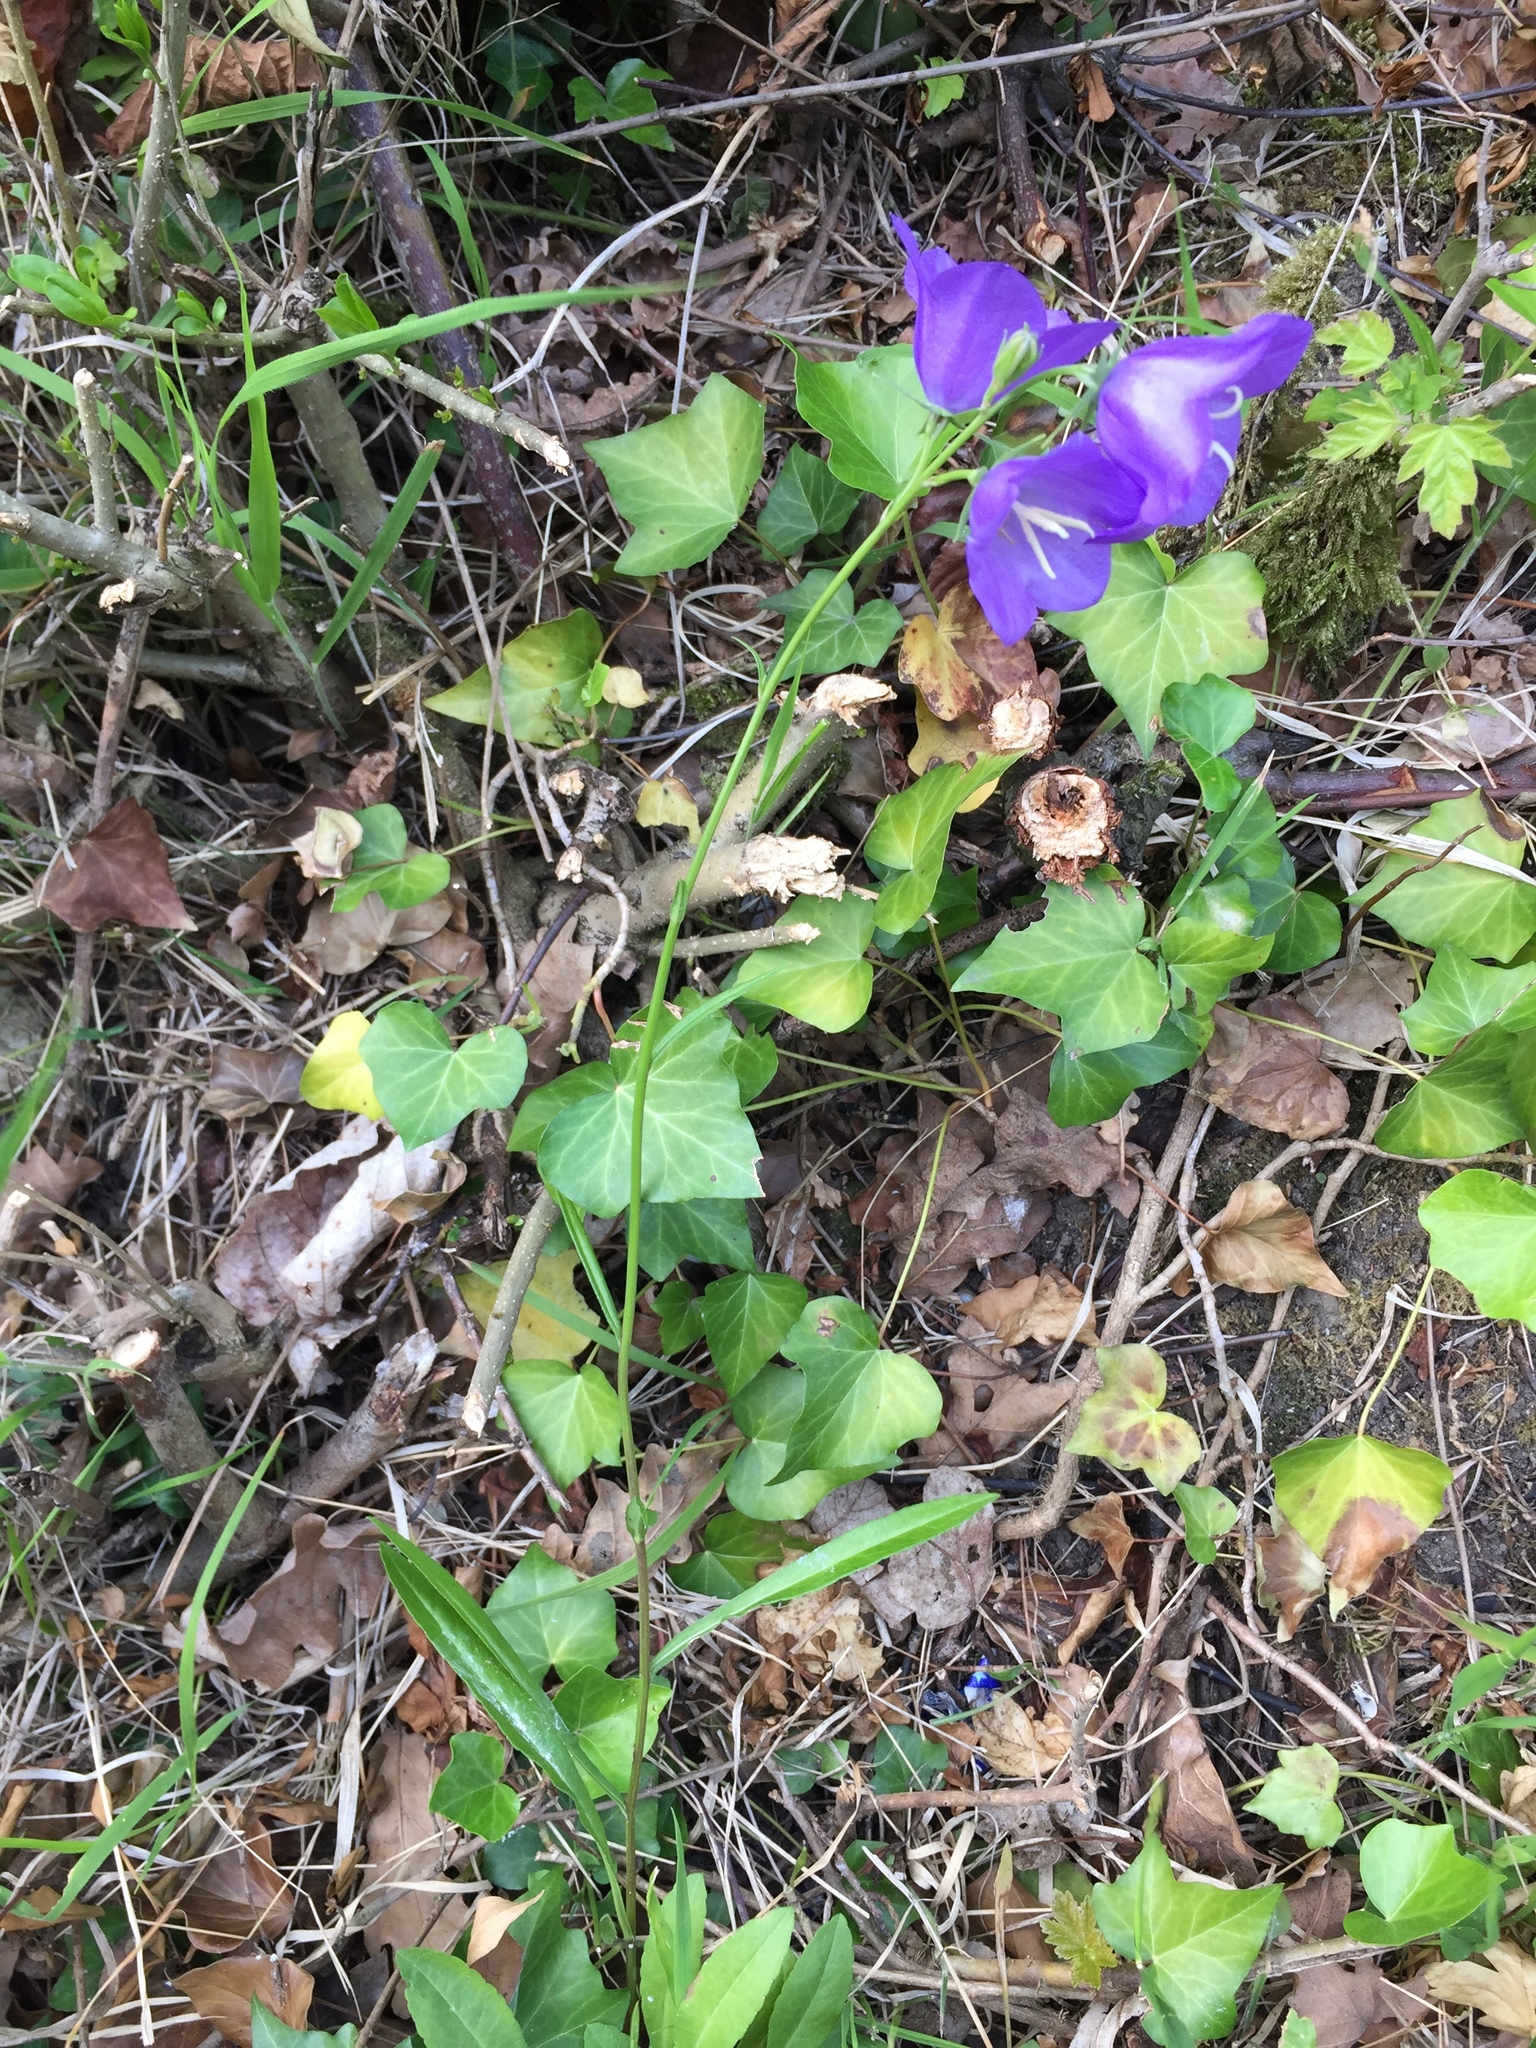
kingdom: Plantae
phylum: Tracheophyta
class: Magnoliopsida
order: Asterales
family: Campanulaceae
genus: Campanula
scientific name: Campanula persicifolia
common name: Peach-leaved bellflower
